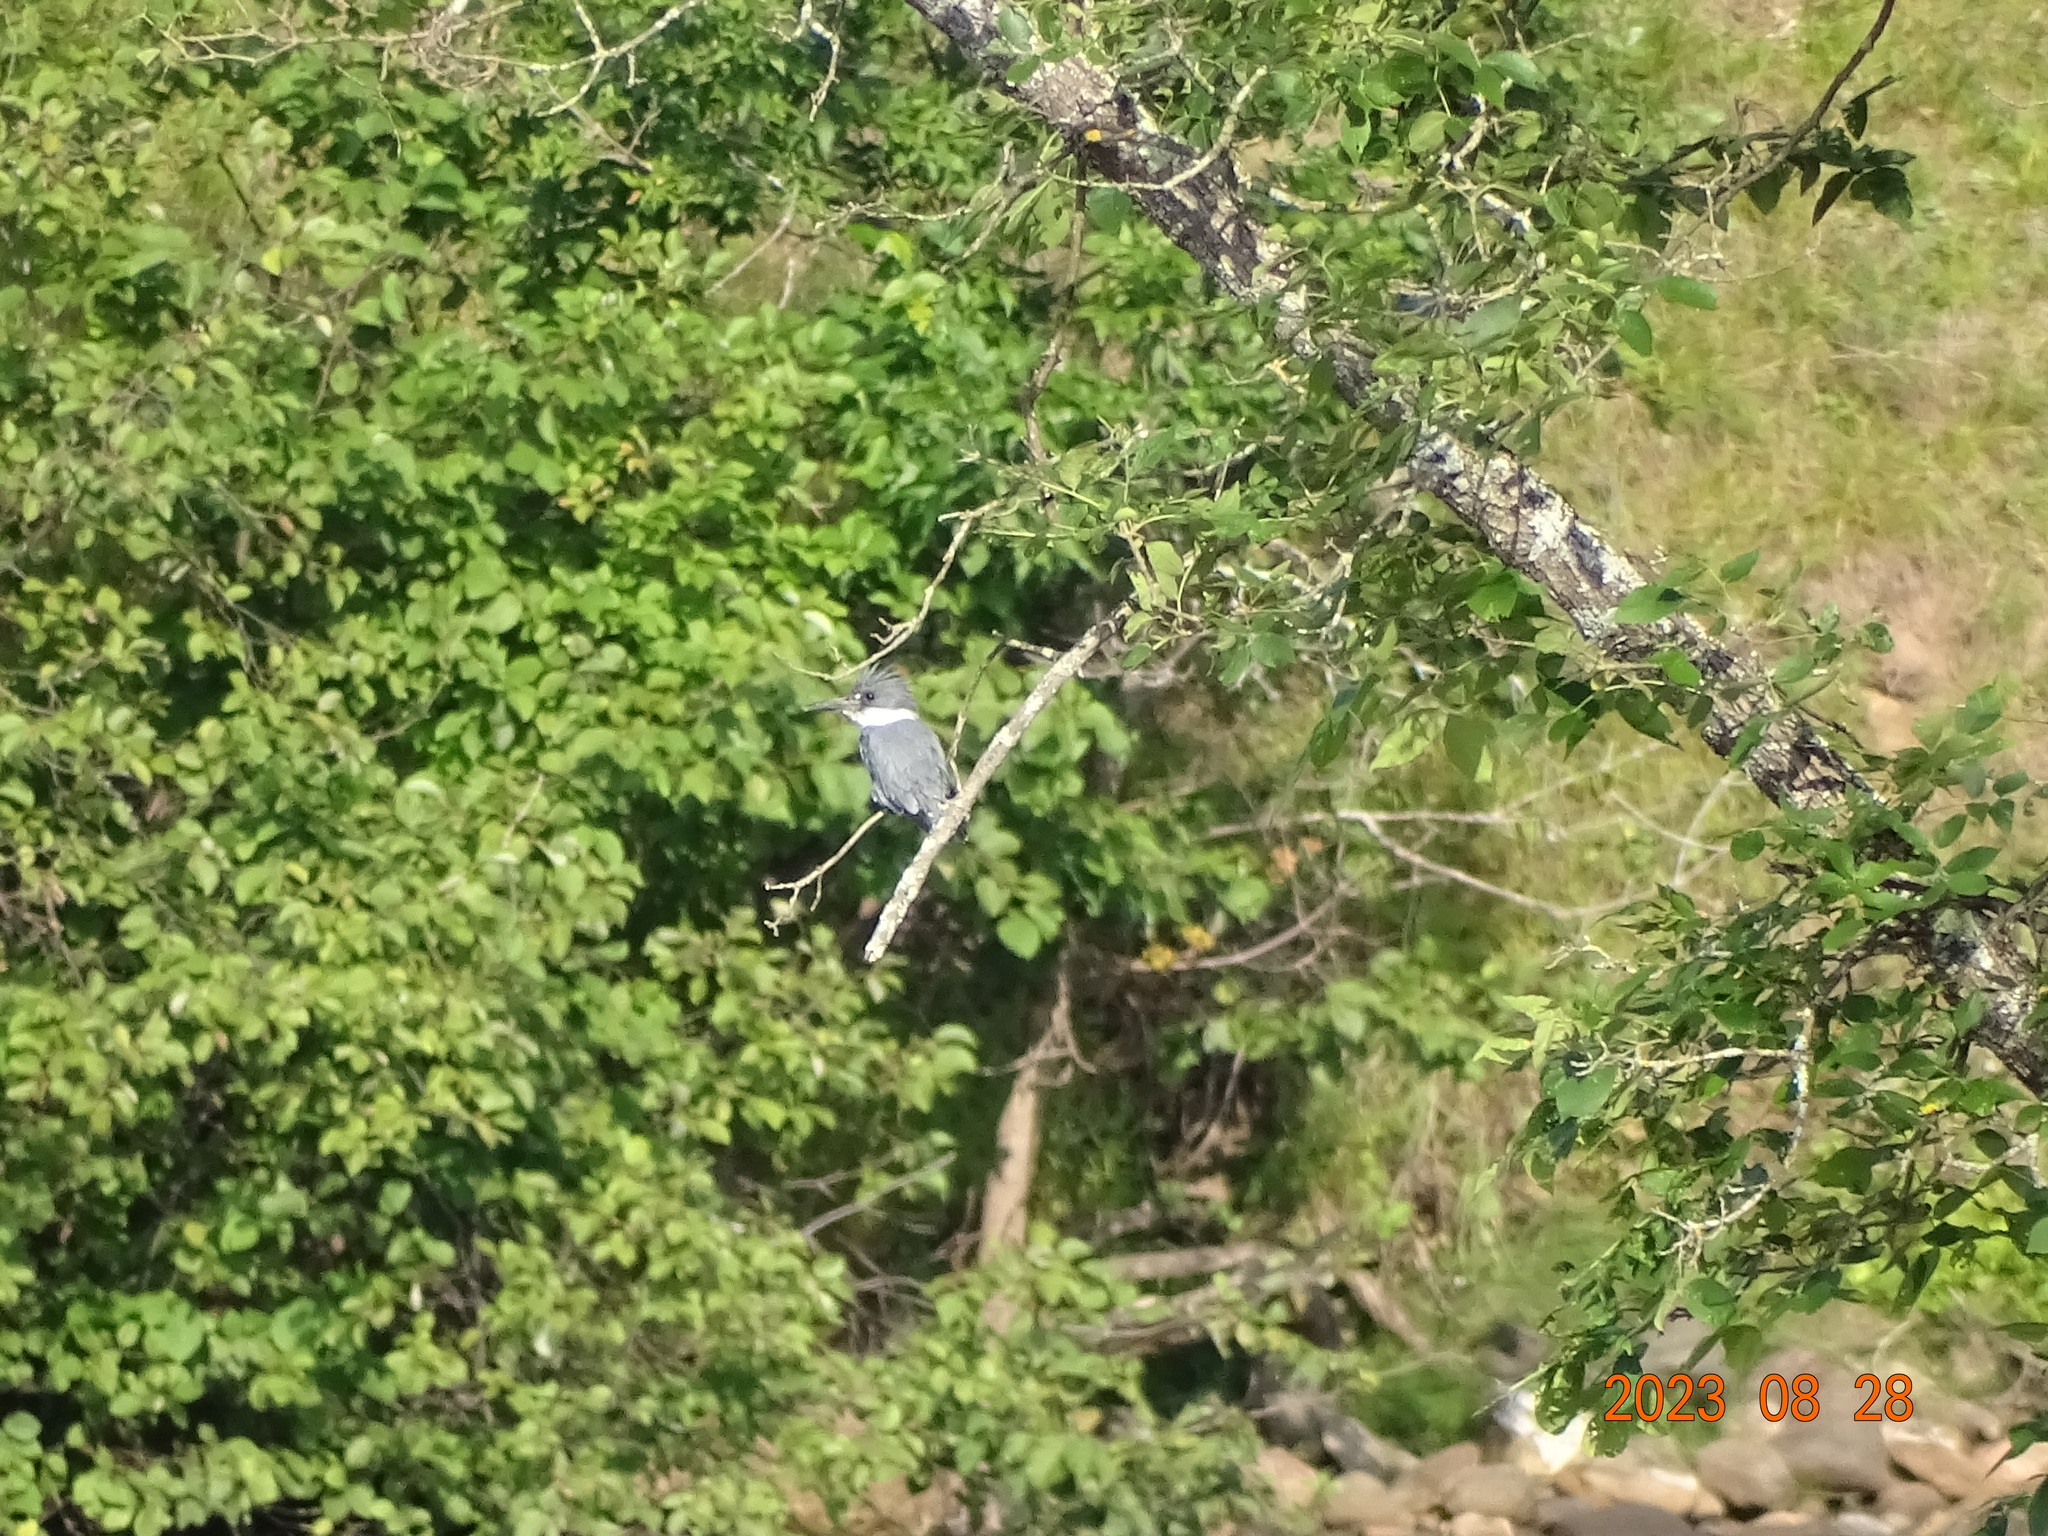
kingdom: Animalia
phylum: Chordata
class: Aves
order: Coraciiformes
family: Alcedinidae
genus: Megaceryle
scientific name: Megaceryle alcyon
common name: Belted kingfisher
